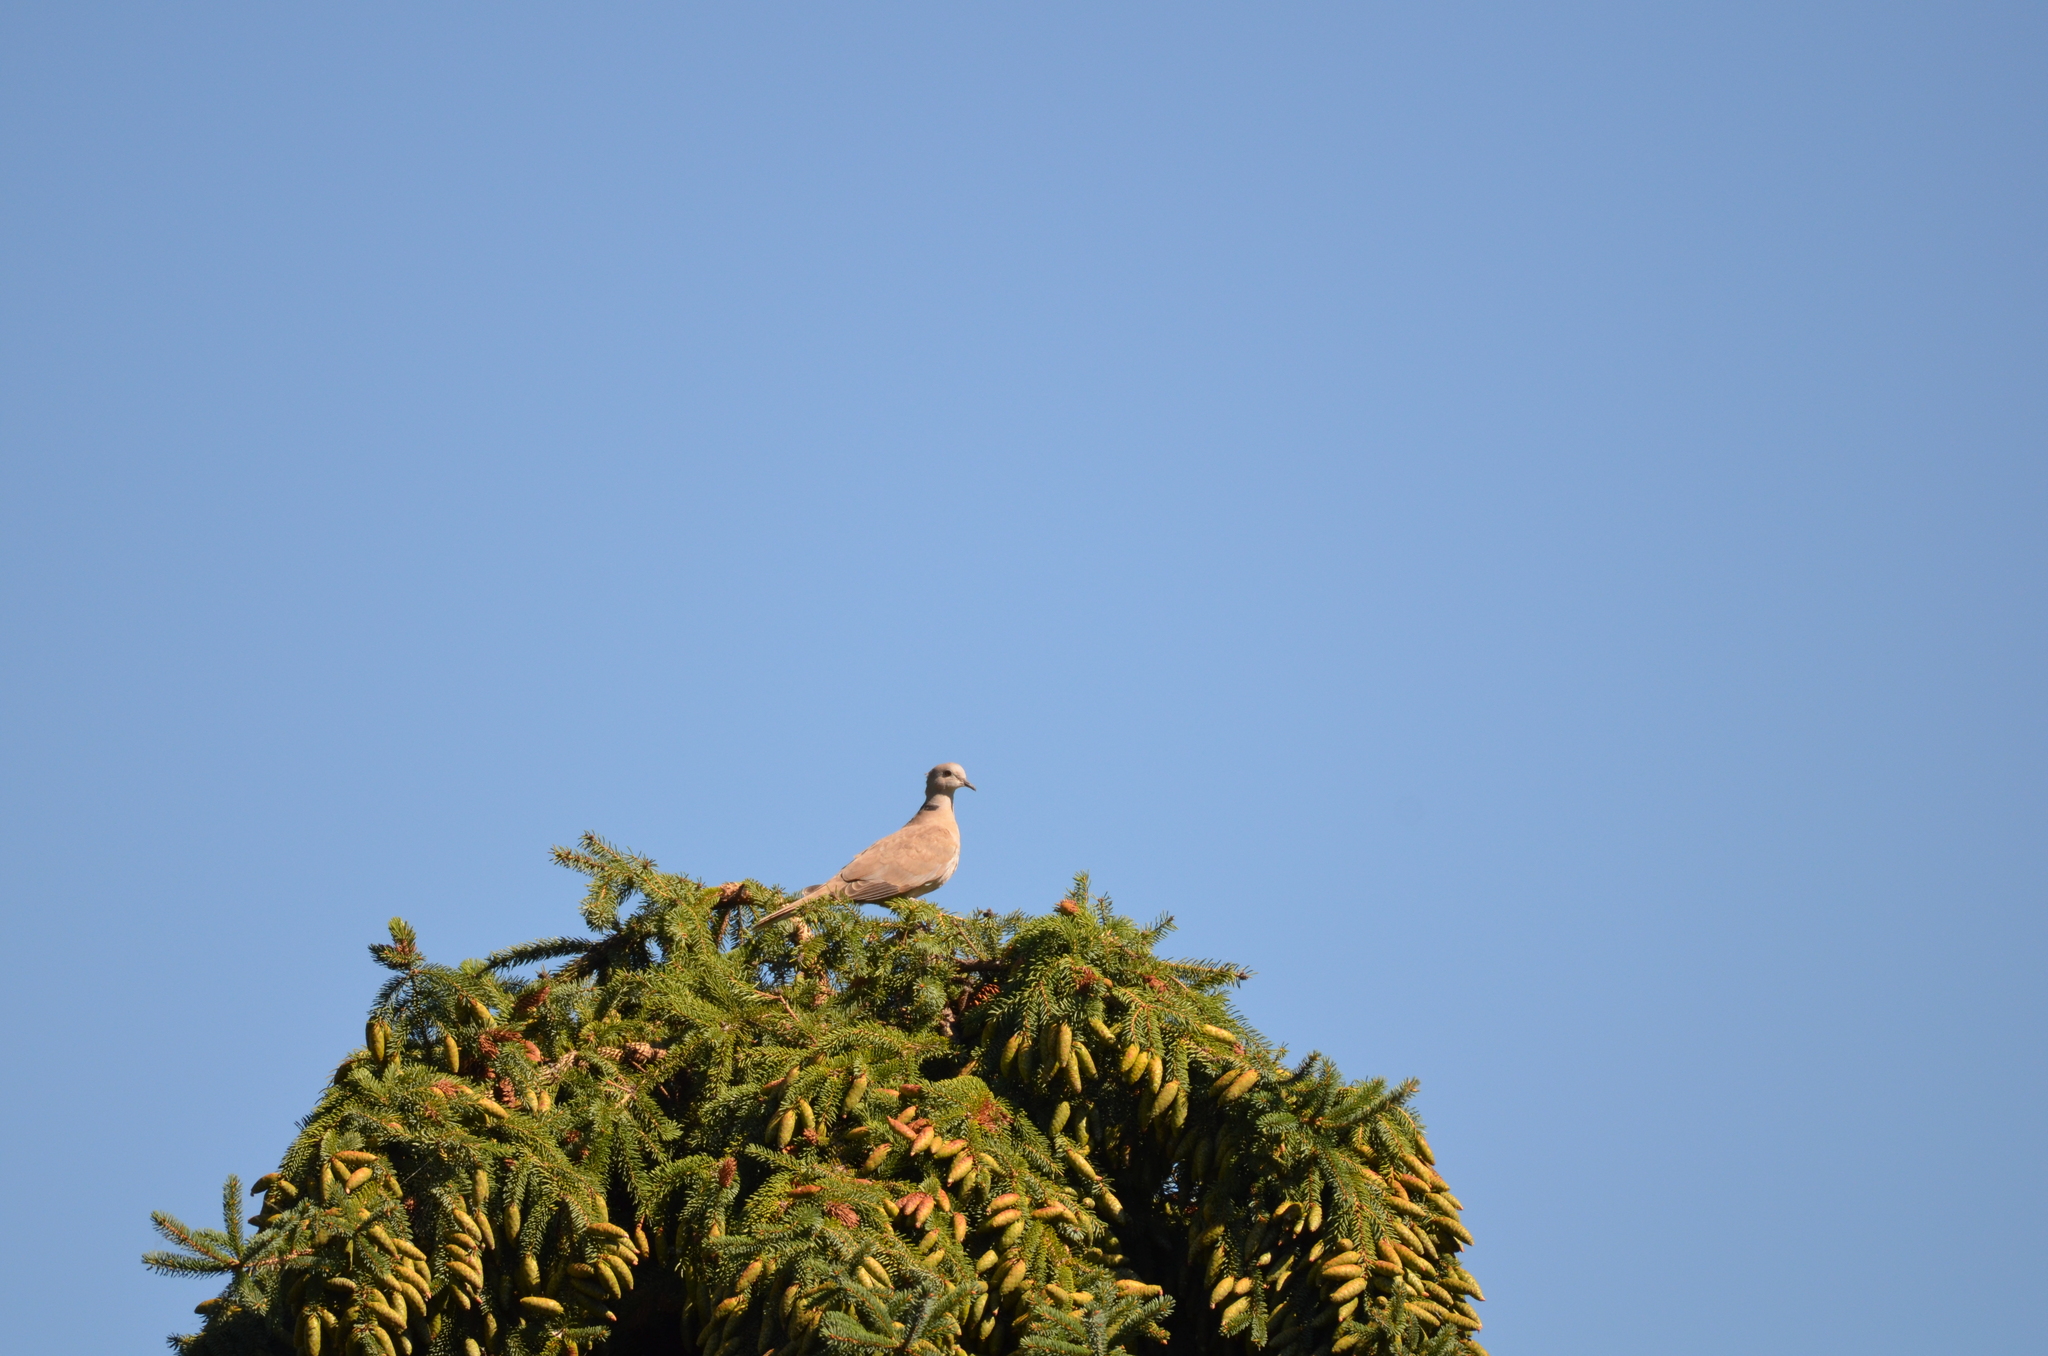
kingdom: Animalia
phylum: Chordata
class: Aves
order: Columbiformes
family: Columbidae
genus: Streptopelia
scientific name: Streptopelia decaocto
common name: Eurasian collared dove
